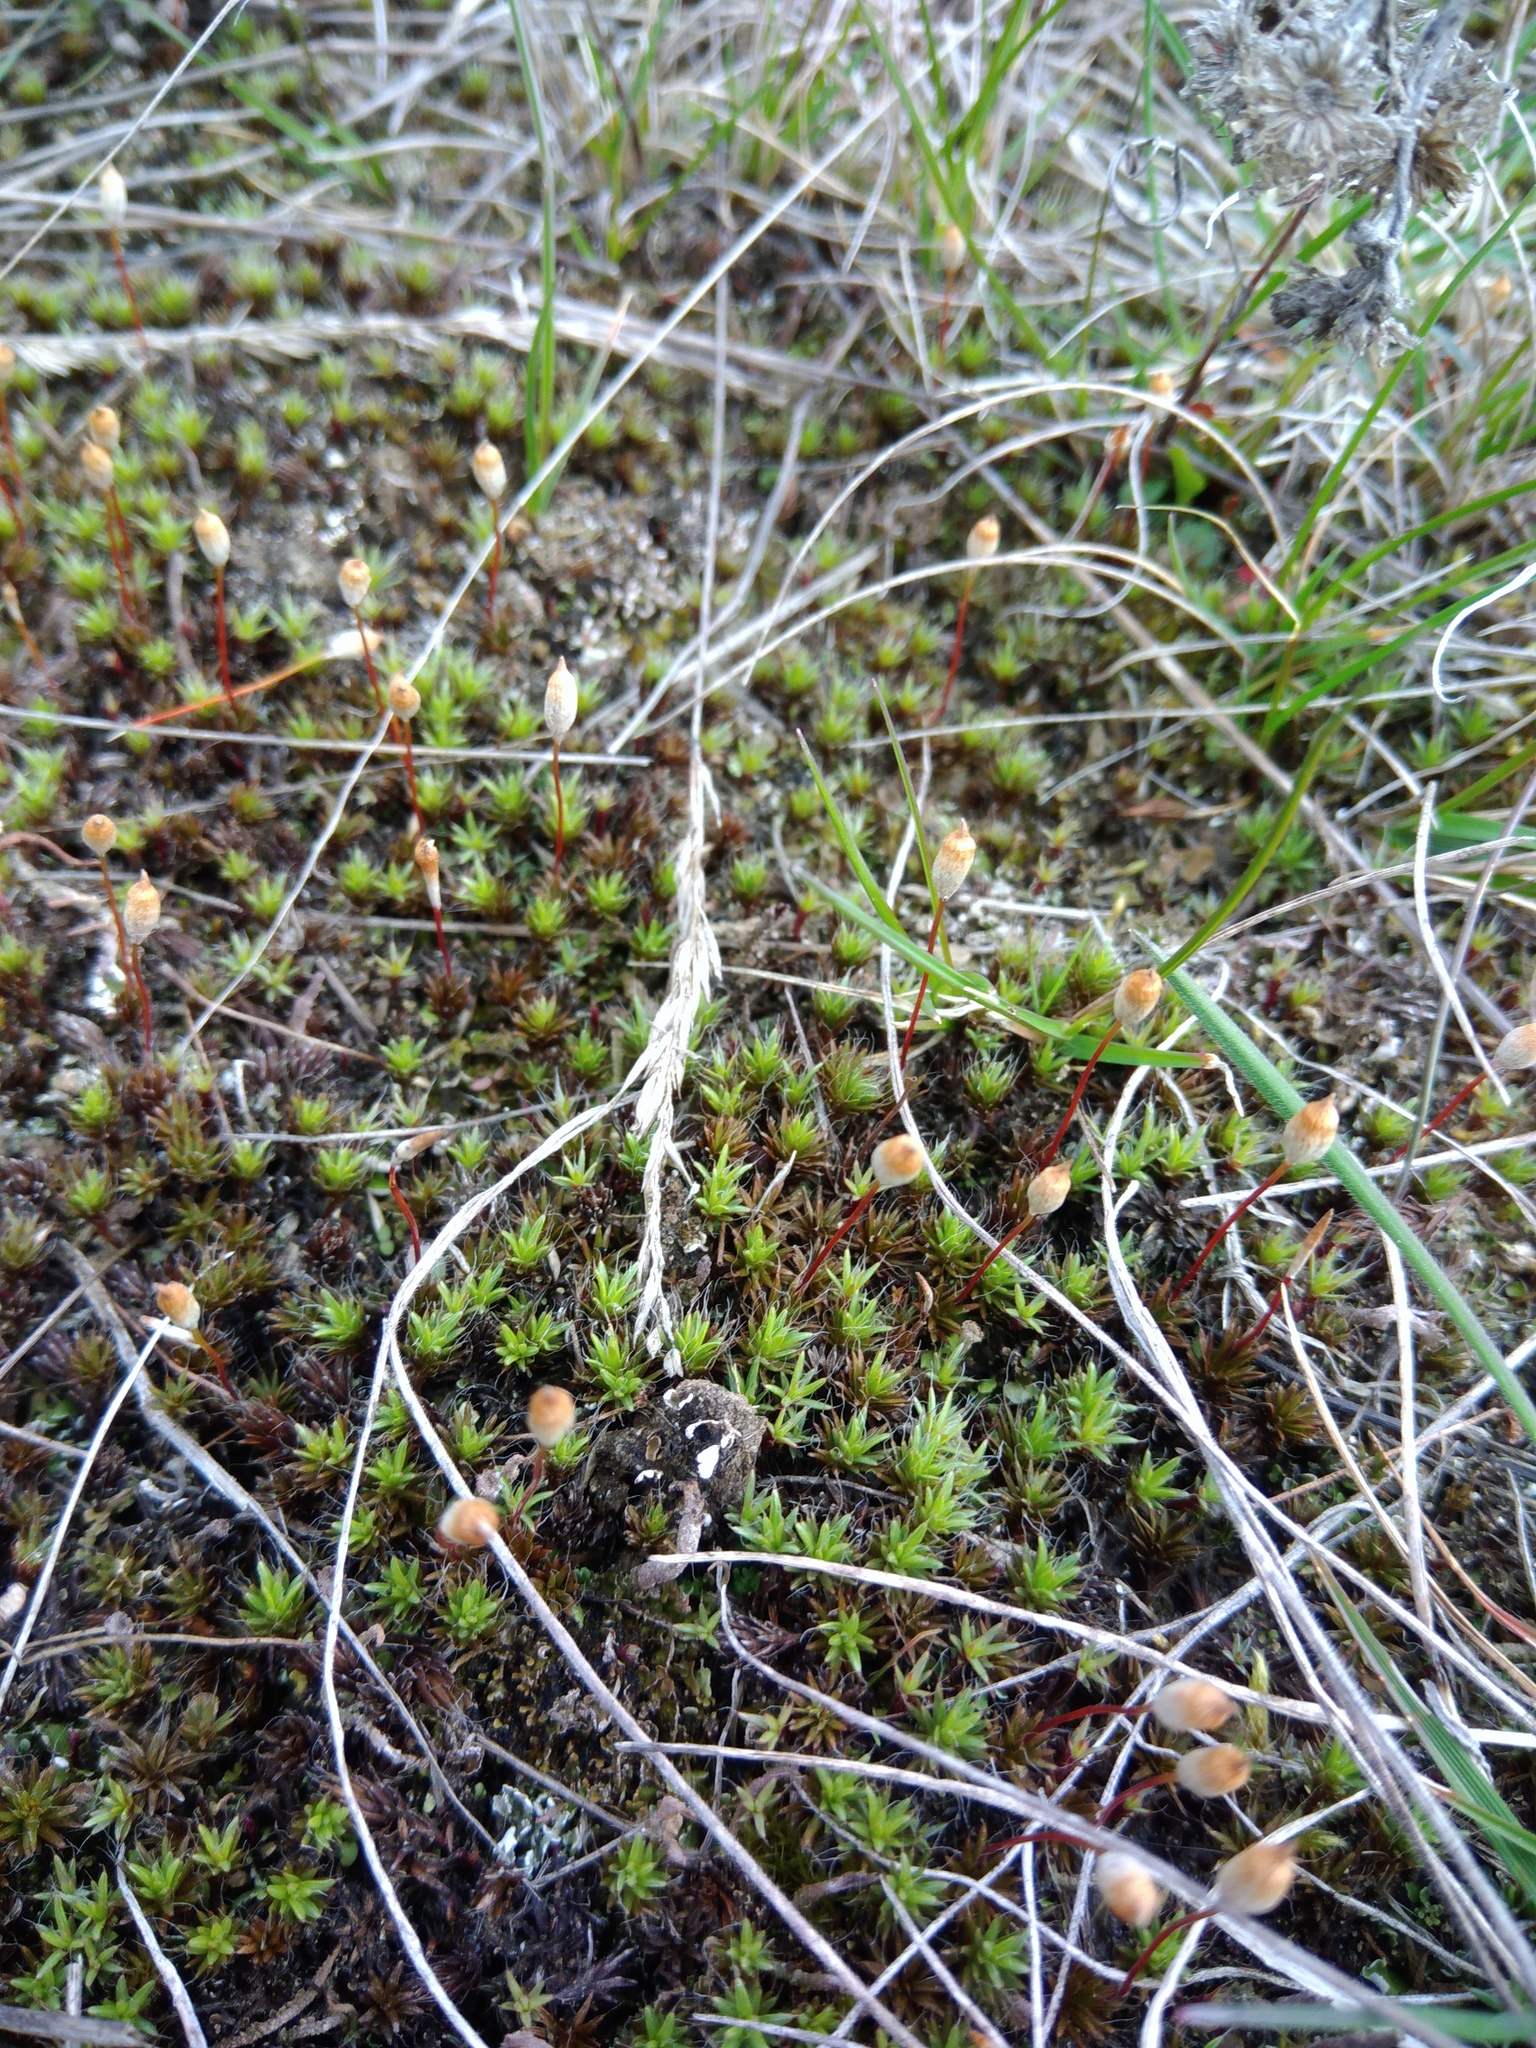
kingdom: Plantae
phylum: Bryophyta
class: Polytrichopsida
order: Polytrichales
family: Polytrichaceae
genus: Polytrichum
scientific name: Polytrichum piliferum
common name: Bristly haircap
